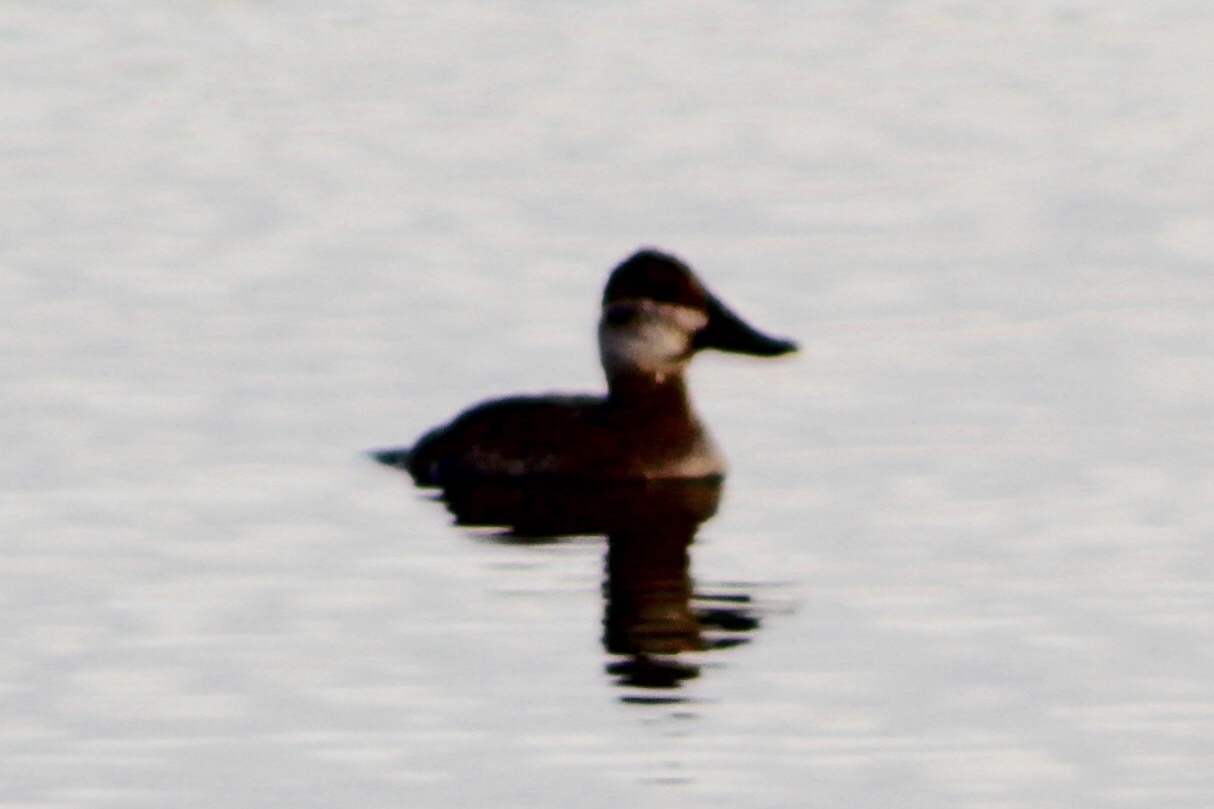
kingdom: Animalia
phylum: Chordata
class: Aves
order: Anseriformes
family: Anatidae
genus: Oxyura
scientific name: Oxyura jamaicensis
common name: Ruddy duck
